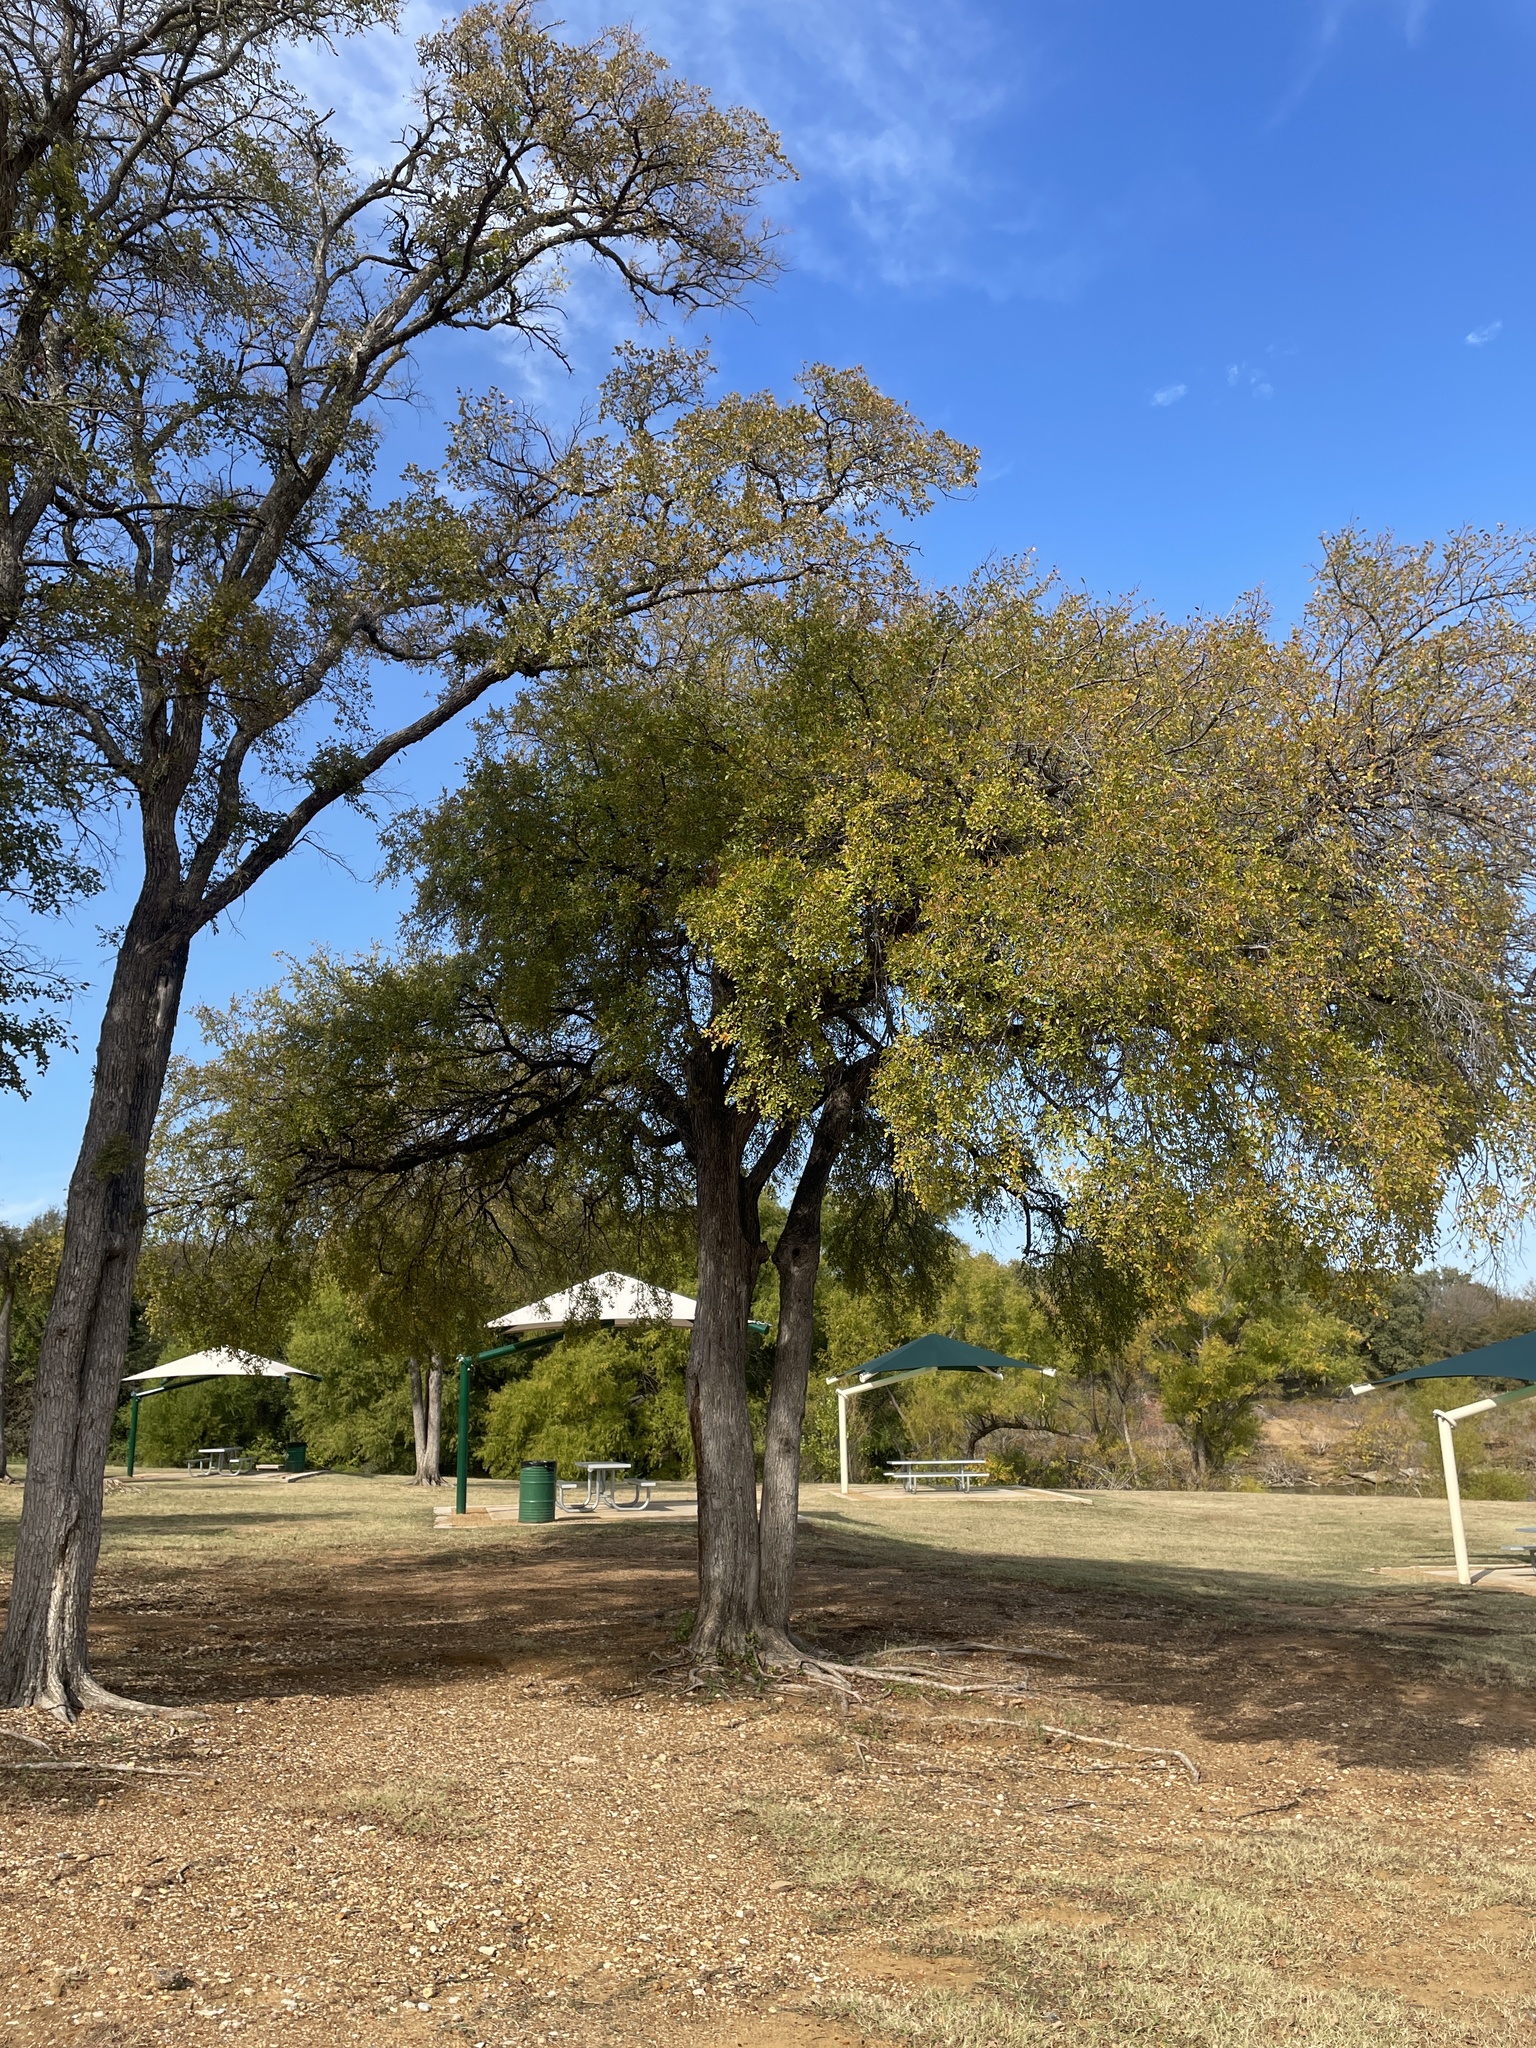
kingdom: Plantae
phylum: Tracheophyta
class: Magnoliopsida
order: Rosales
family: Ulmaceae
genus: Ulmus
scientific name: Ulmus crassifolia
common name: Basket elm
